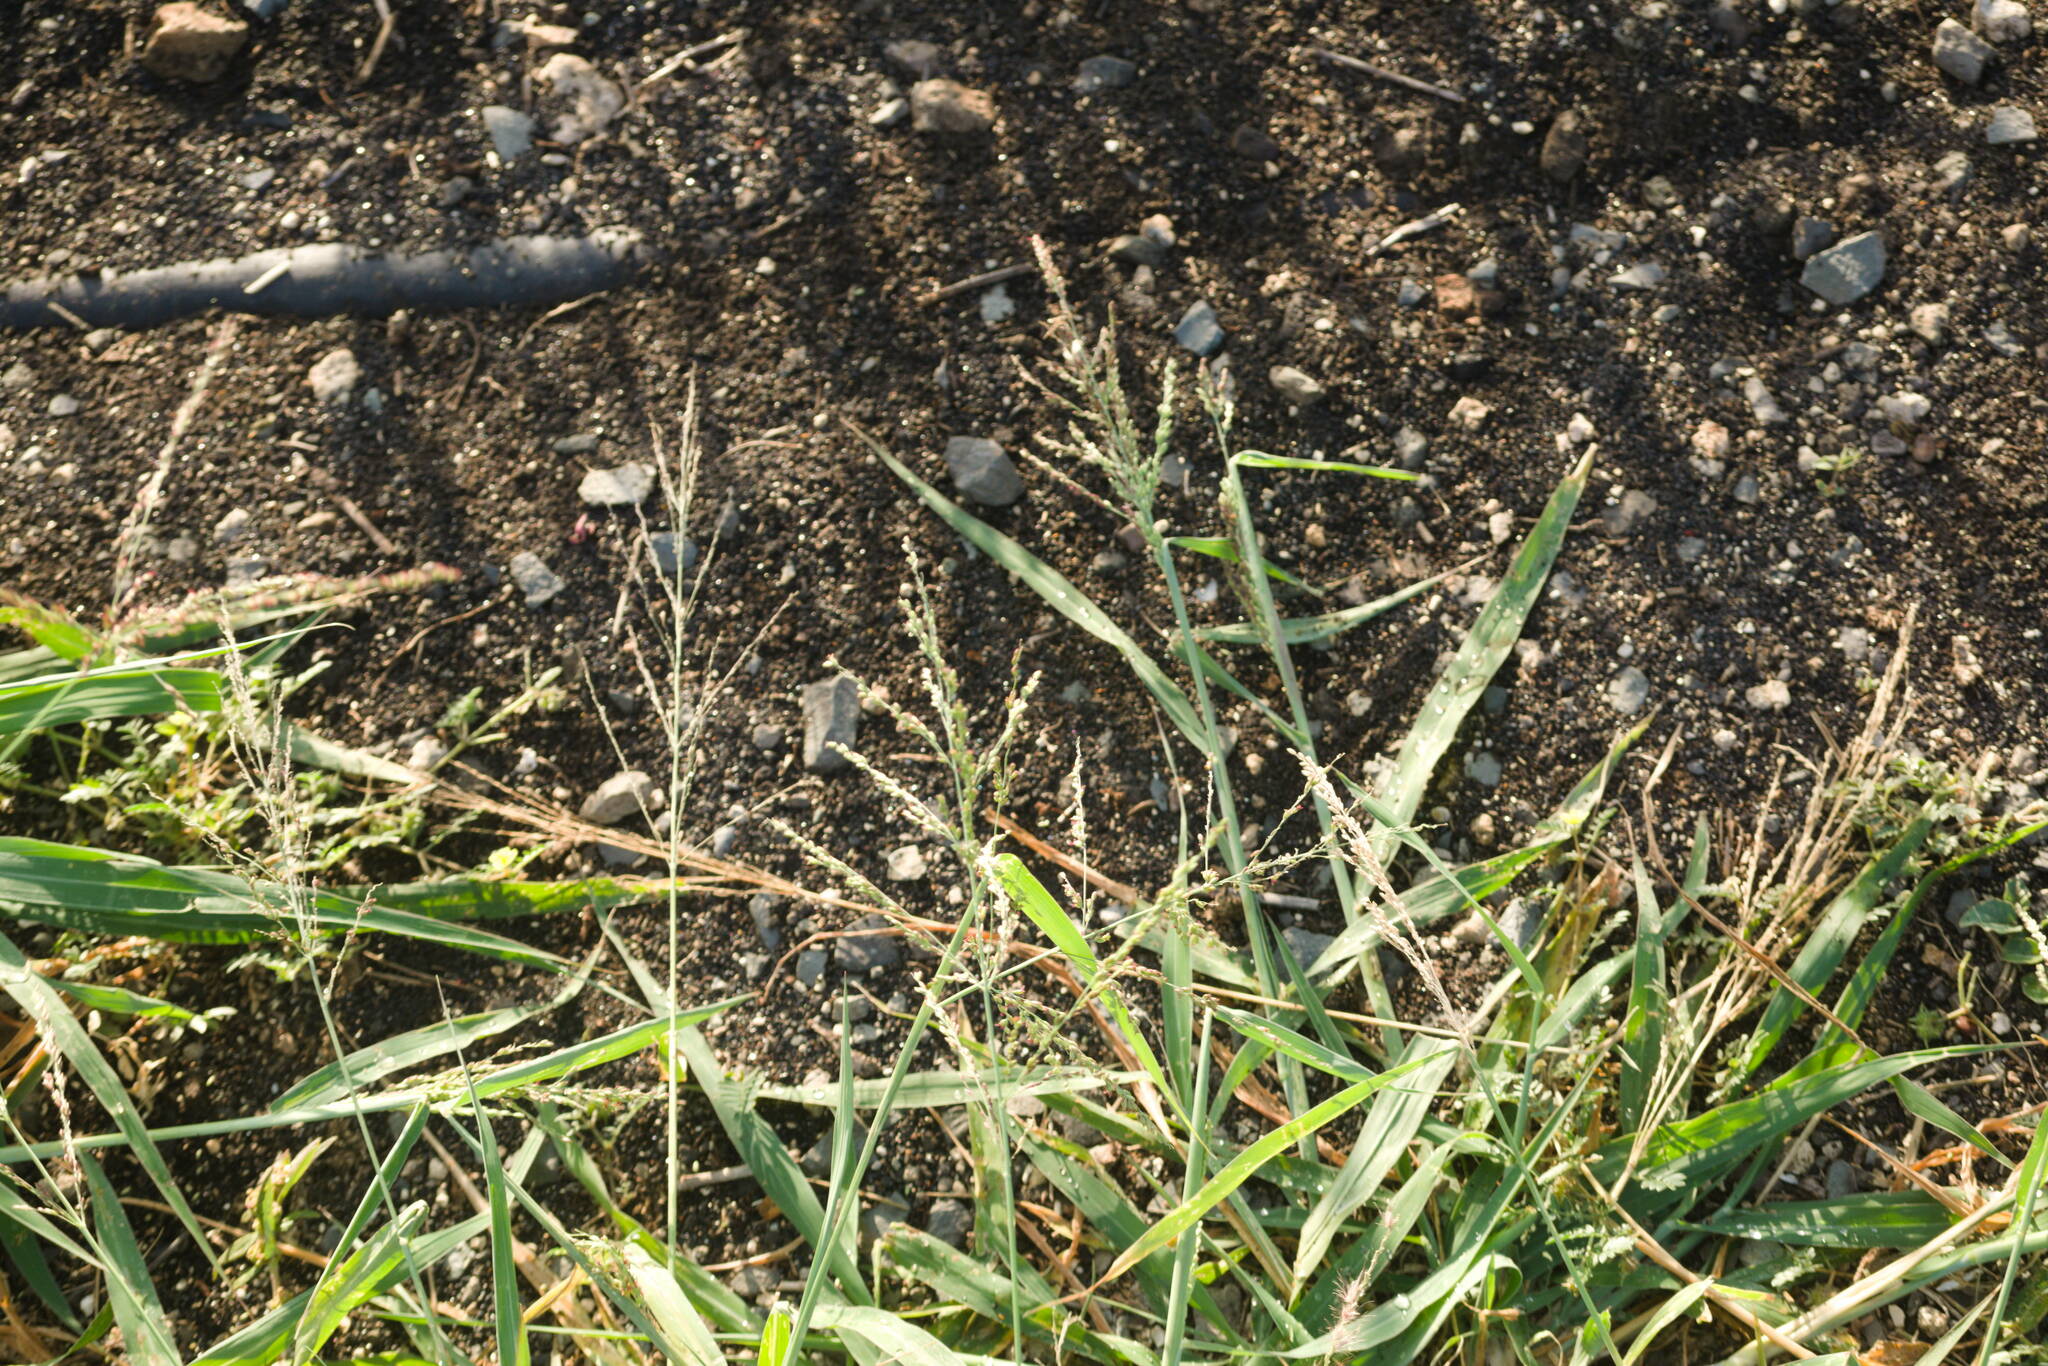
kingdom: Plantae
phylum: Tracheophyta
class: Liliopsida
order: Poales
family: Poaceae
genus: Megathyrsus
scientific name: Megathyrsus maximus
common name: Guineagrass
